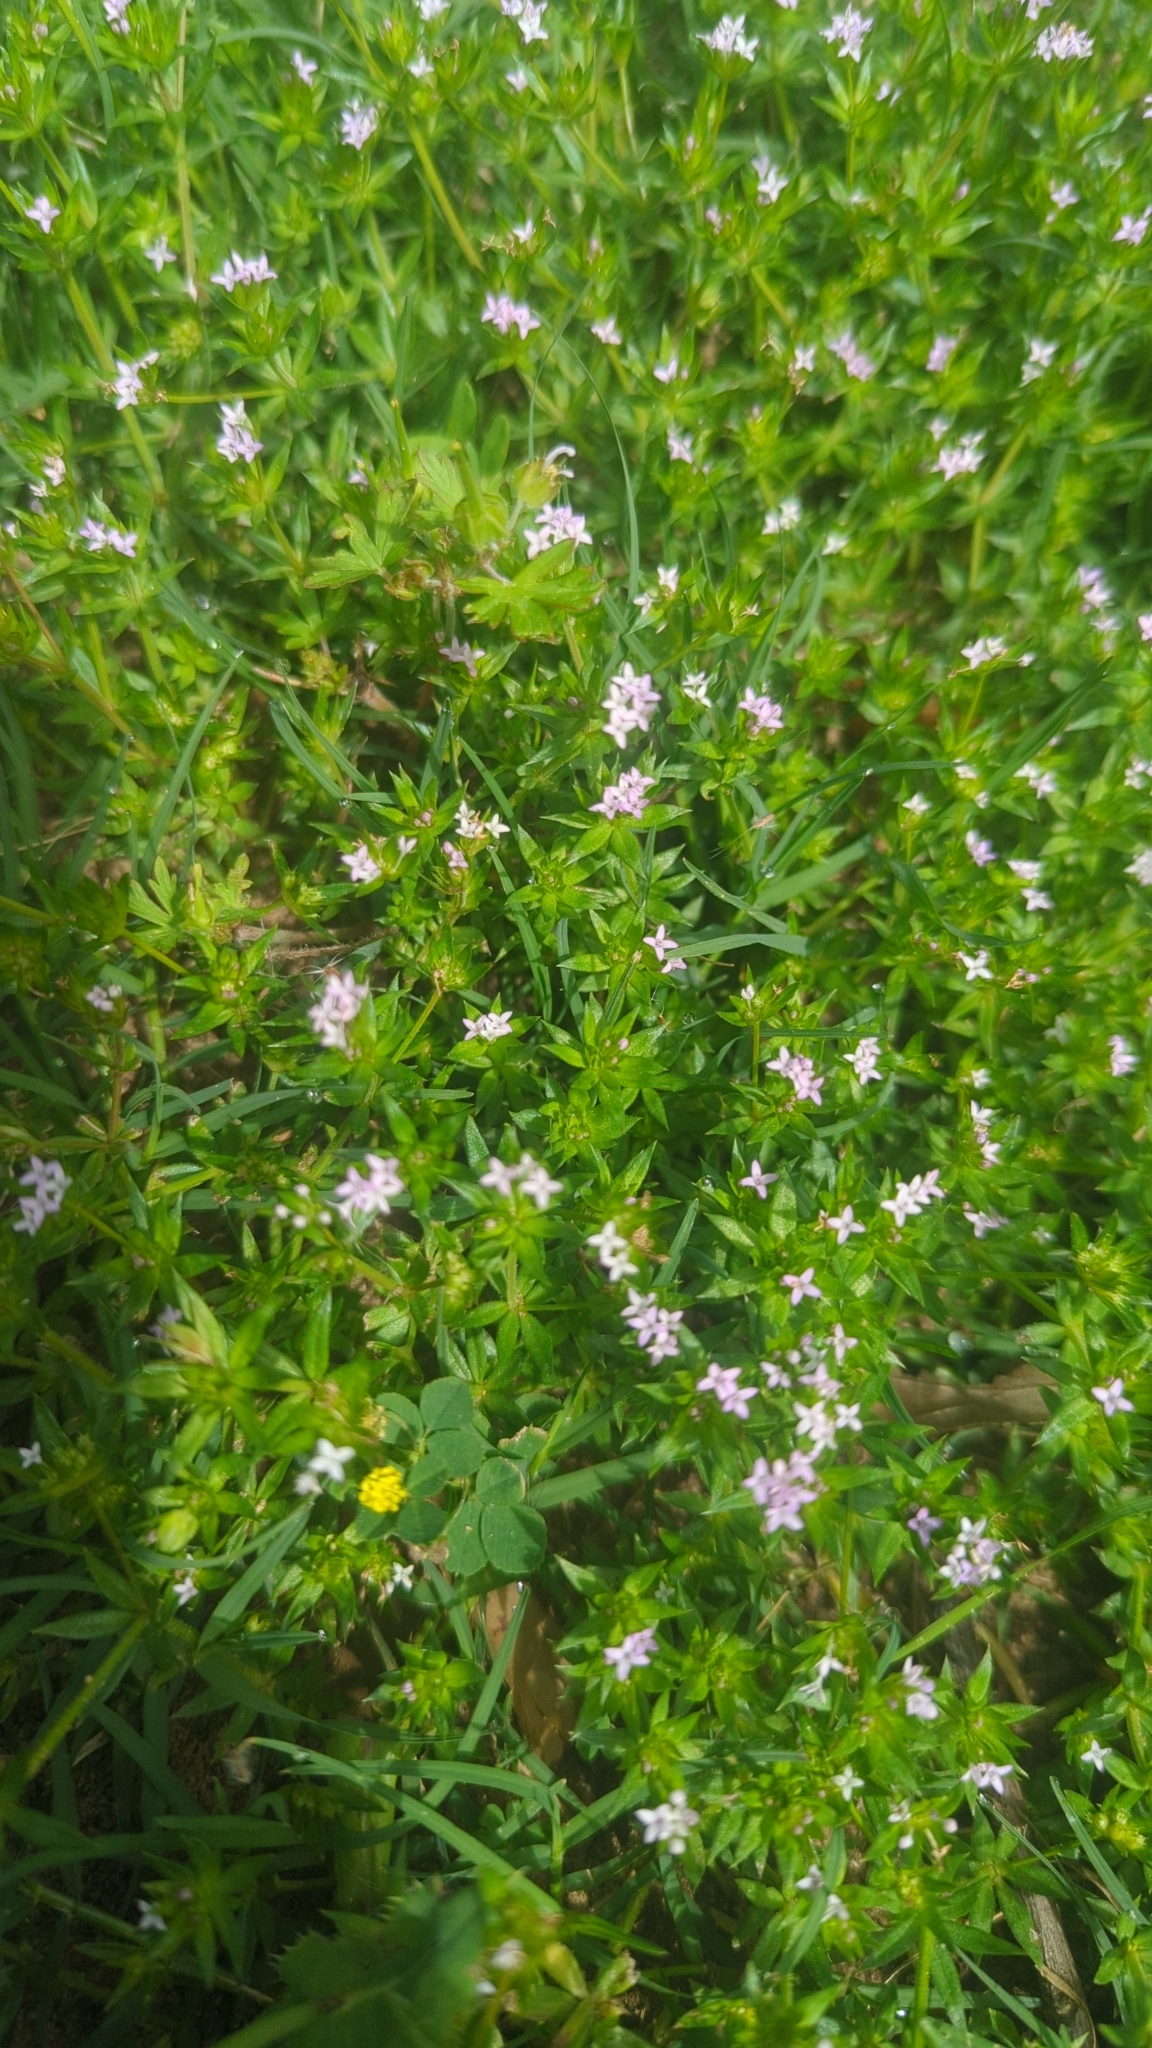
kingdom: Plantae
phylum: Tracheophyta
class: Magnoliopsida
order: Gentianales
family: Rubiaceae
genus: Sherardia
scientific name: Sherardia arvensis
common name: Field madder
